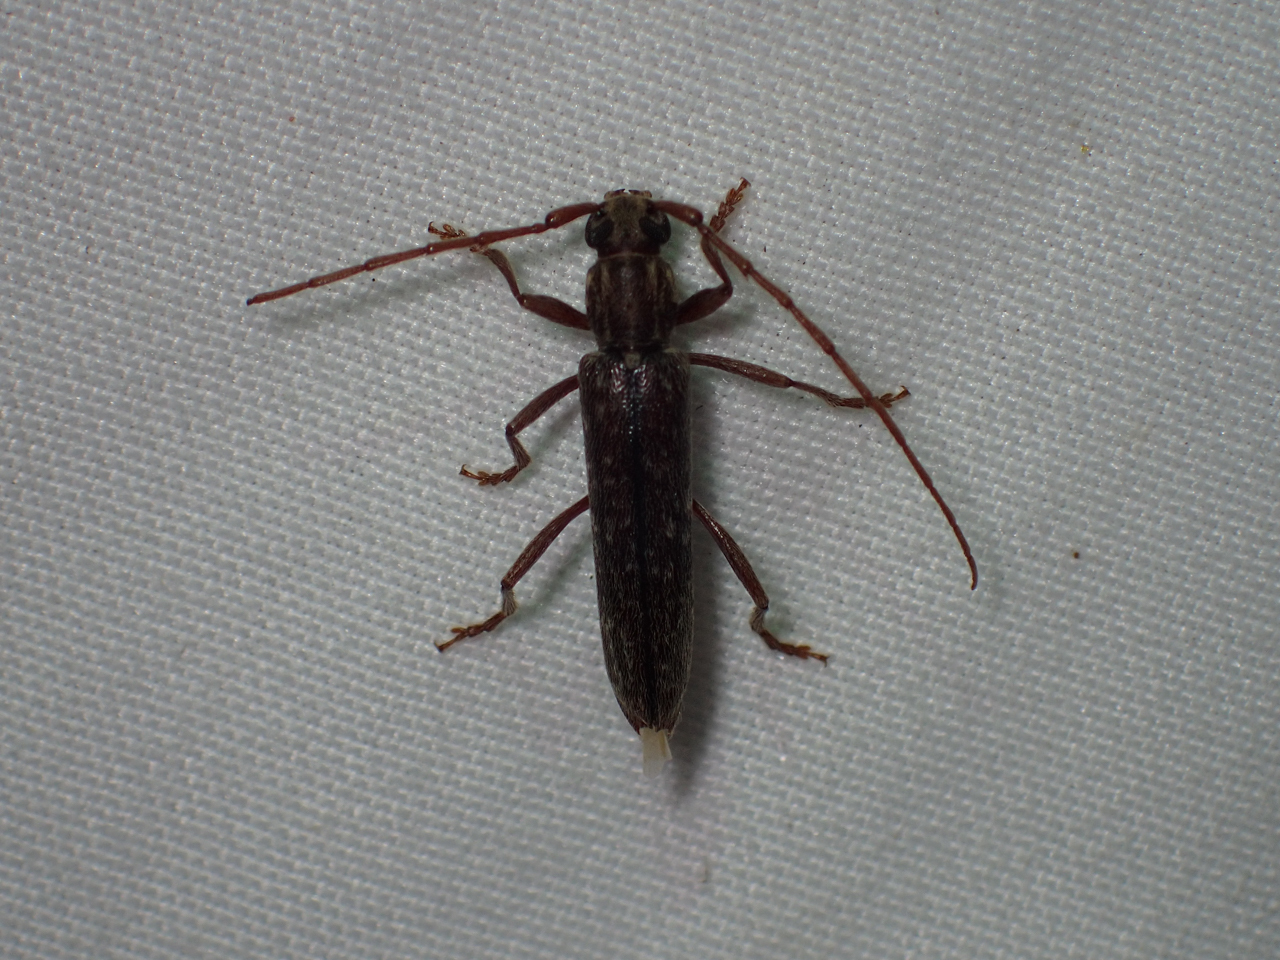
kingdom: Animalia
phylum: Arthropoda
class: Insecta
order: Coleoptera
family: Cerambycidae
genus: Anelaphus
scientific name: Anelaphus villosus
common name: Twig pruner
